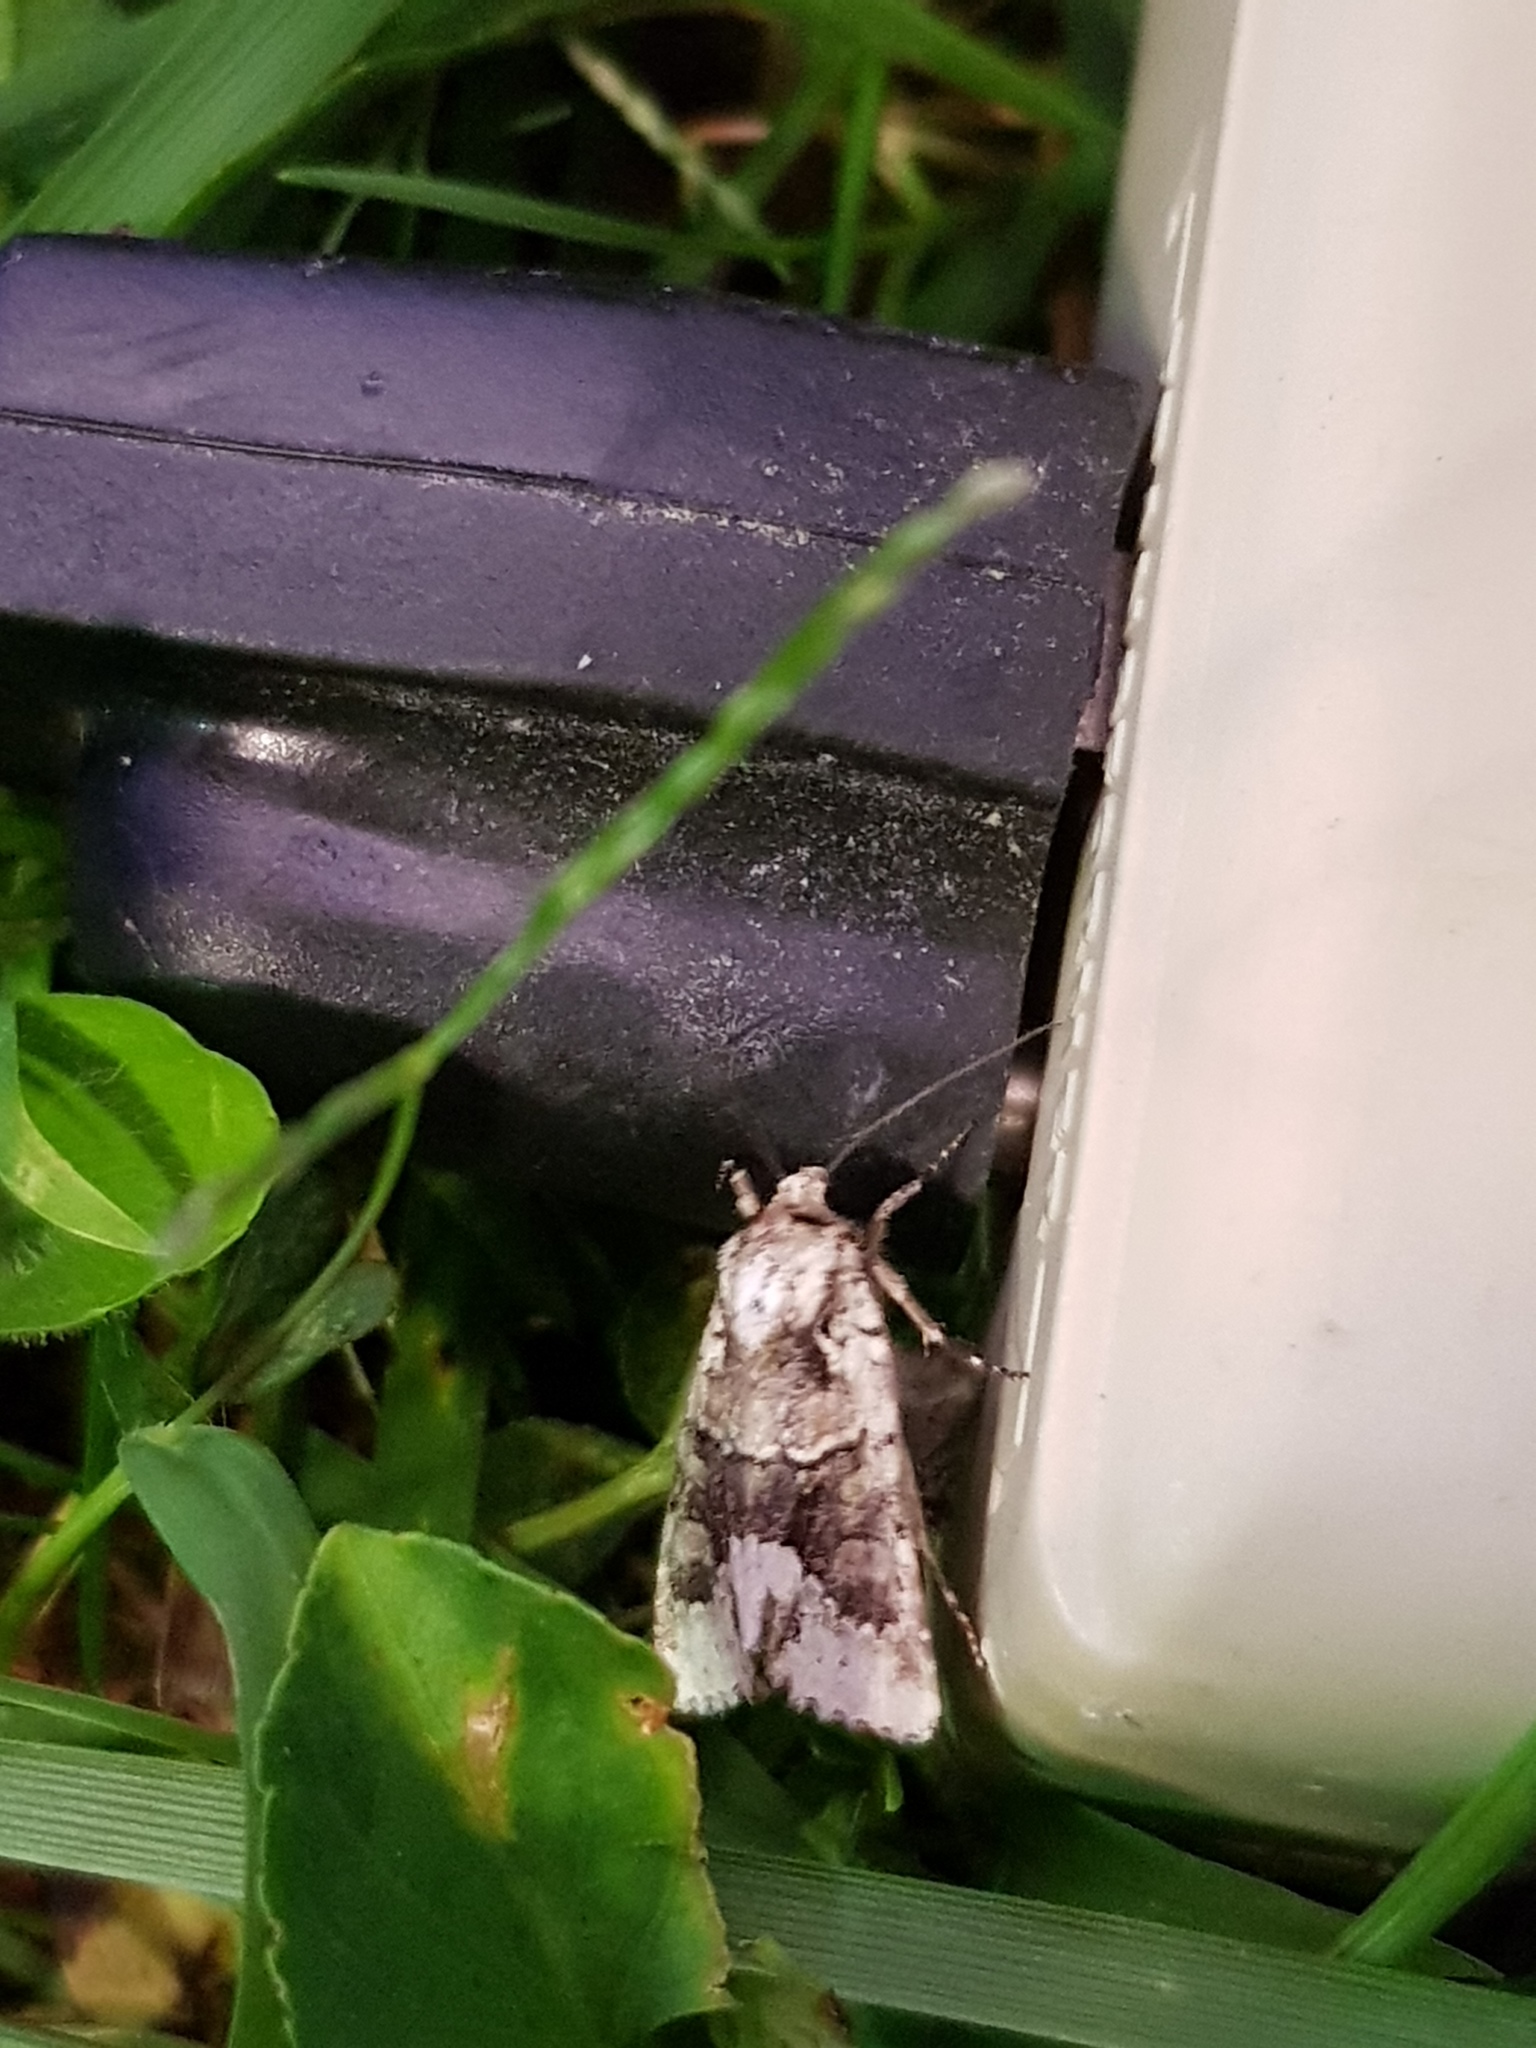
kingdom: Animalia
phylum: Arthropoda
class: Insecta
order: Lepidoptera
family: Noctuidae
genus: Lacinipolia
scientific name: Lacinipolia explicata
